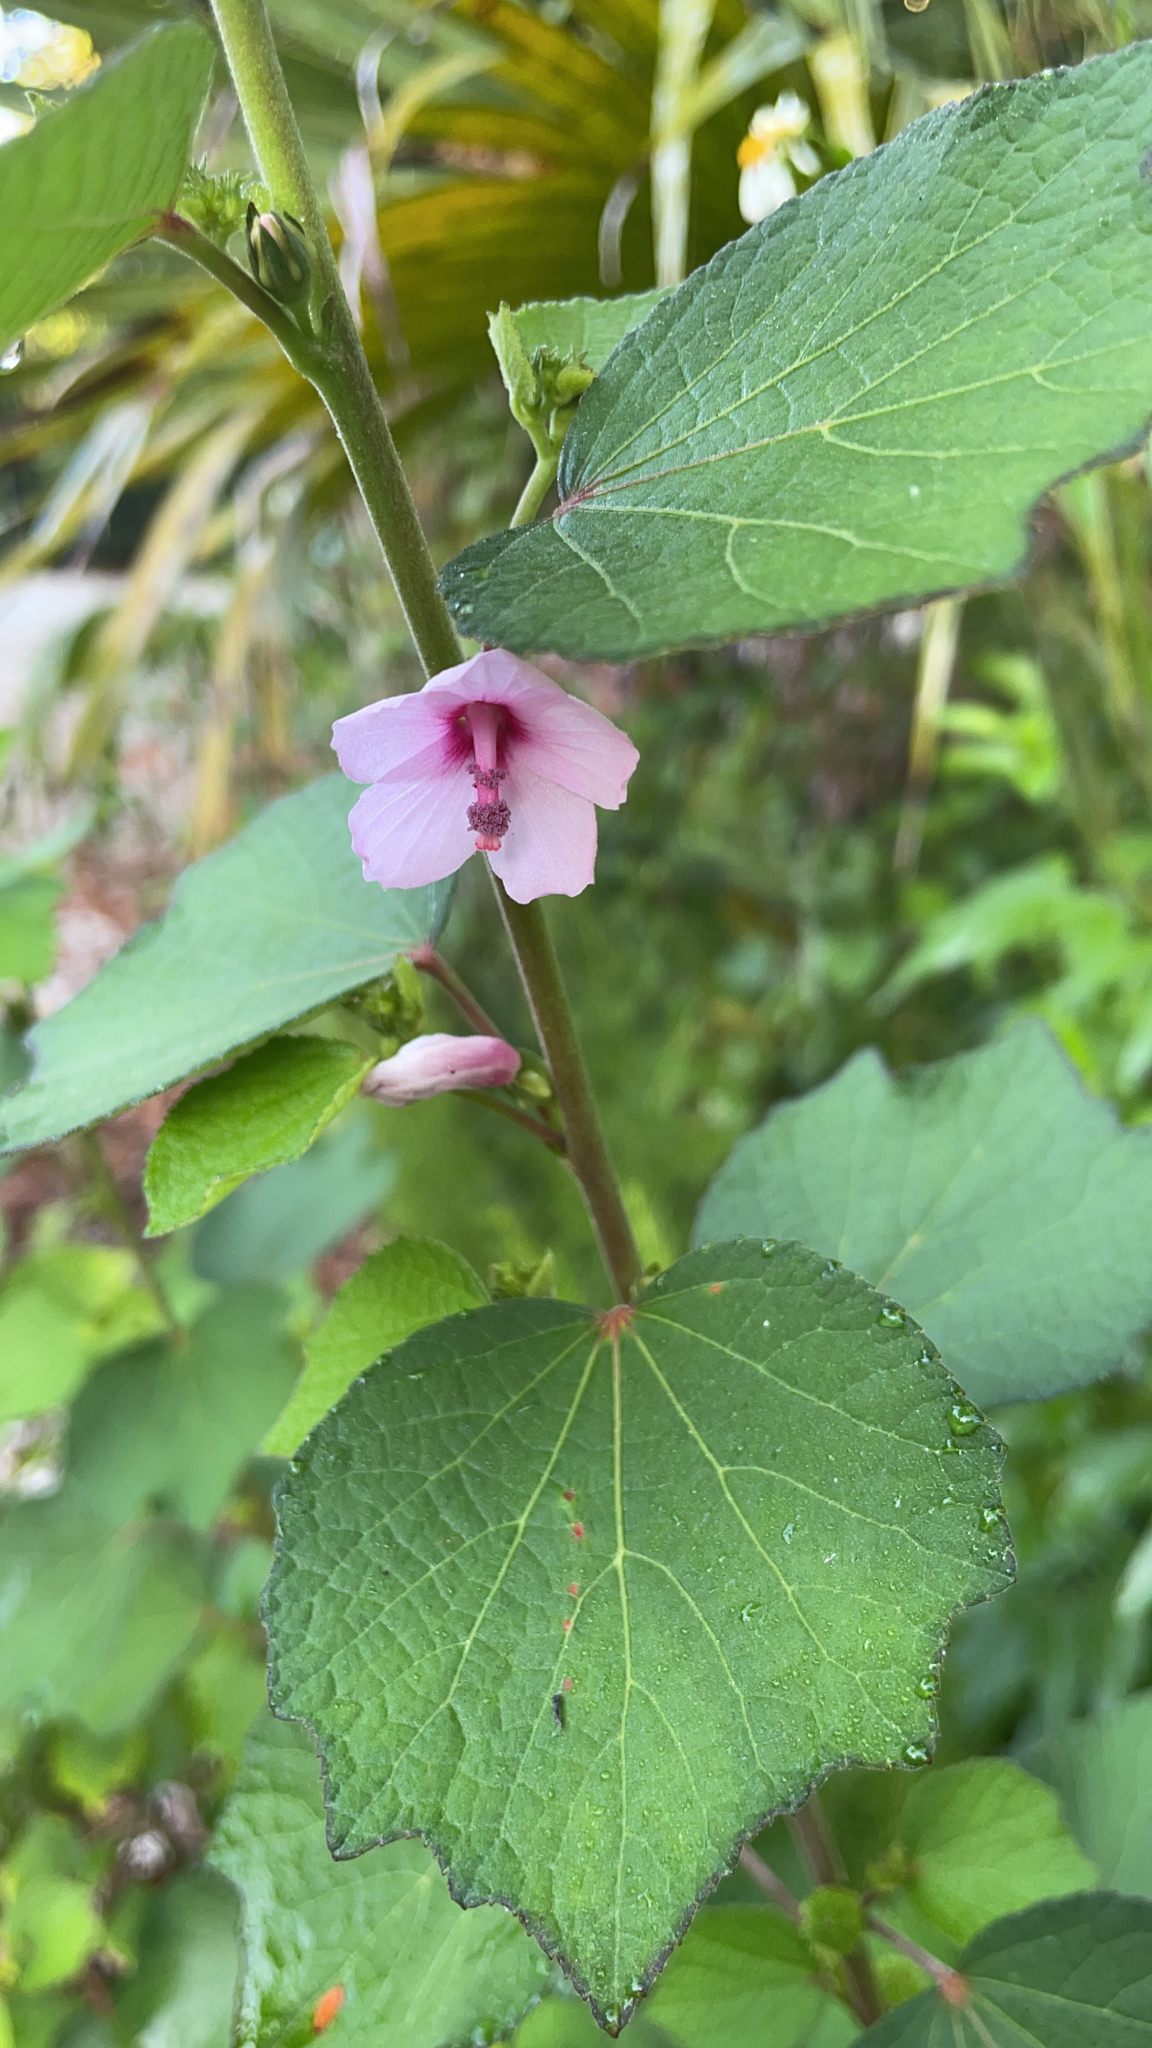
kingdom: Plantae
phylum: Tracheophyta
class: Magnoliopsida
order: Malvales
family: Malvaceae
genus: Urena
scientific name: Urena lobata
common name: Caesarweed
